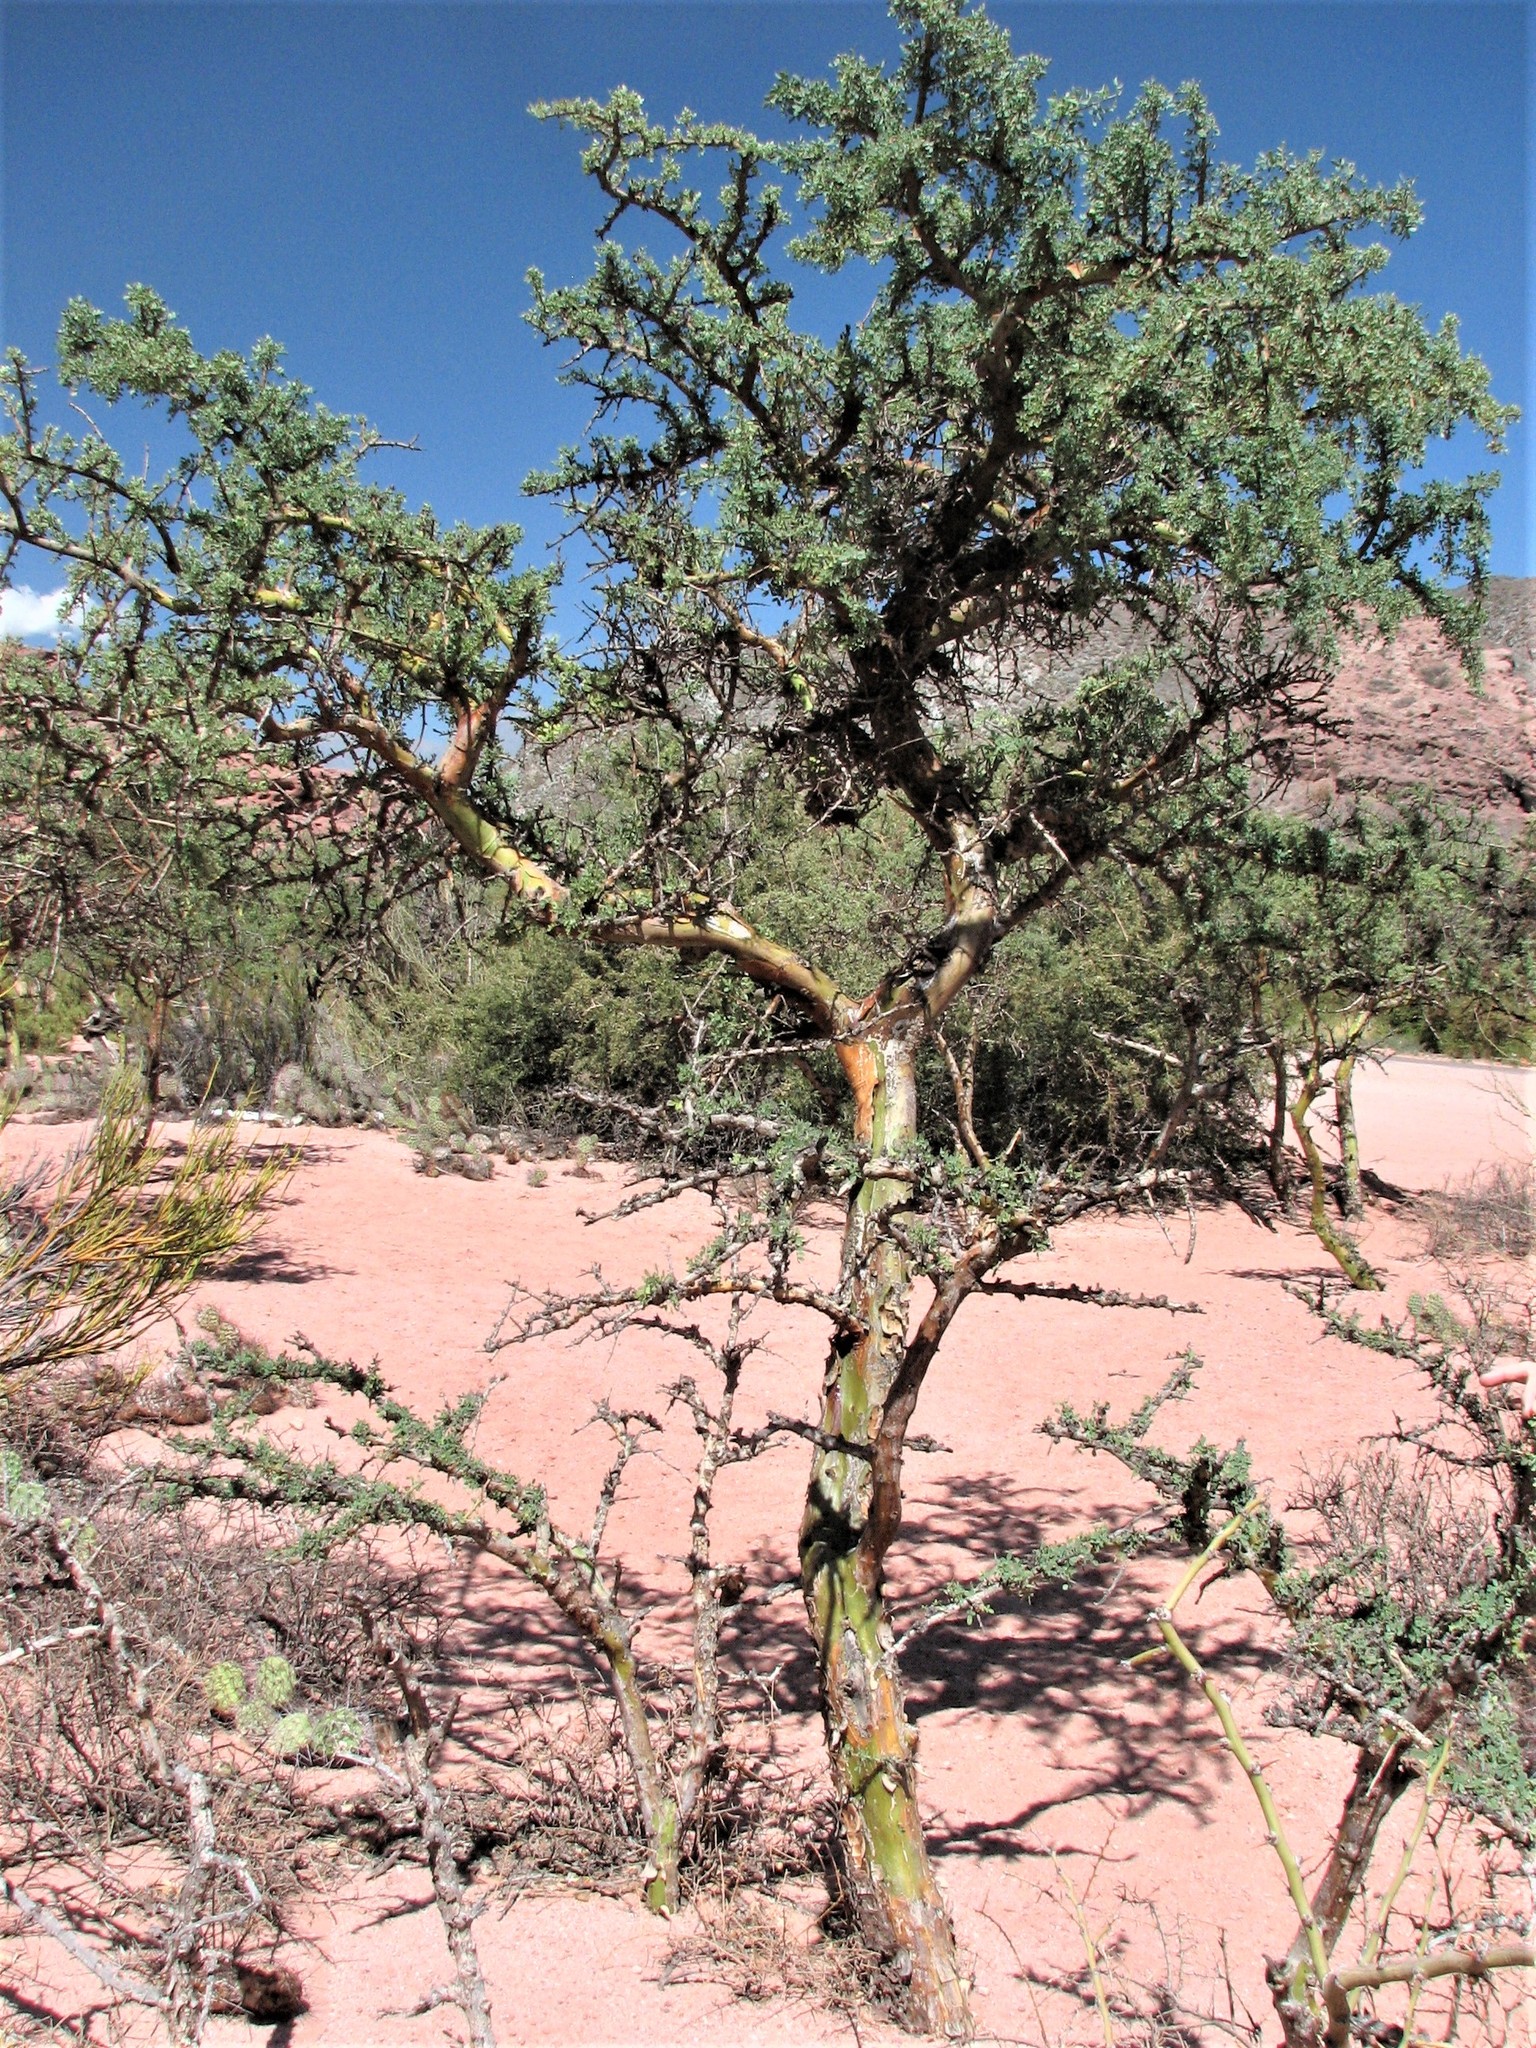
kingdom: Plantae
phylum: Tracheophyta
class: Magnoliopsida
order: Fabales
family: Fabaceae
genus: Geoffroea
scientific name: Geoffroea decorticans
